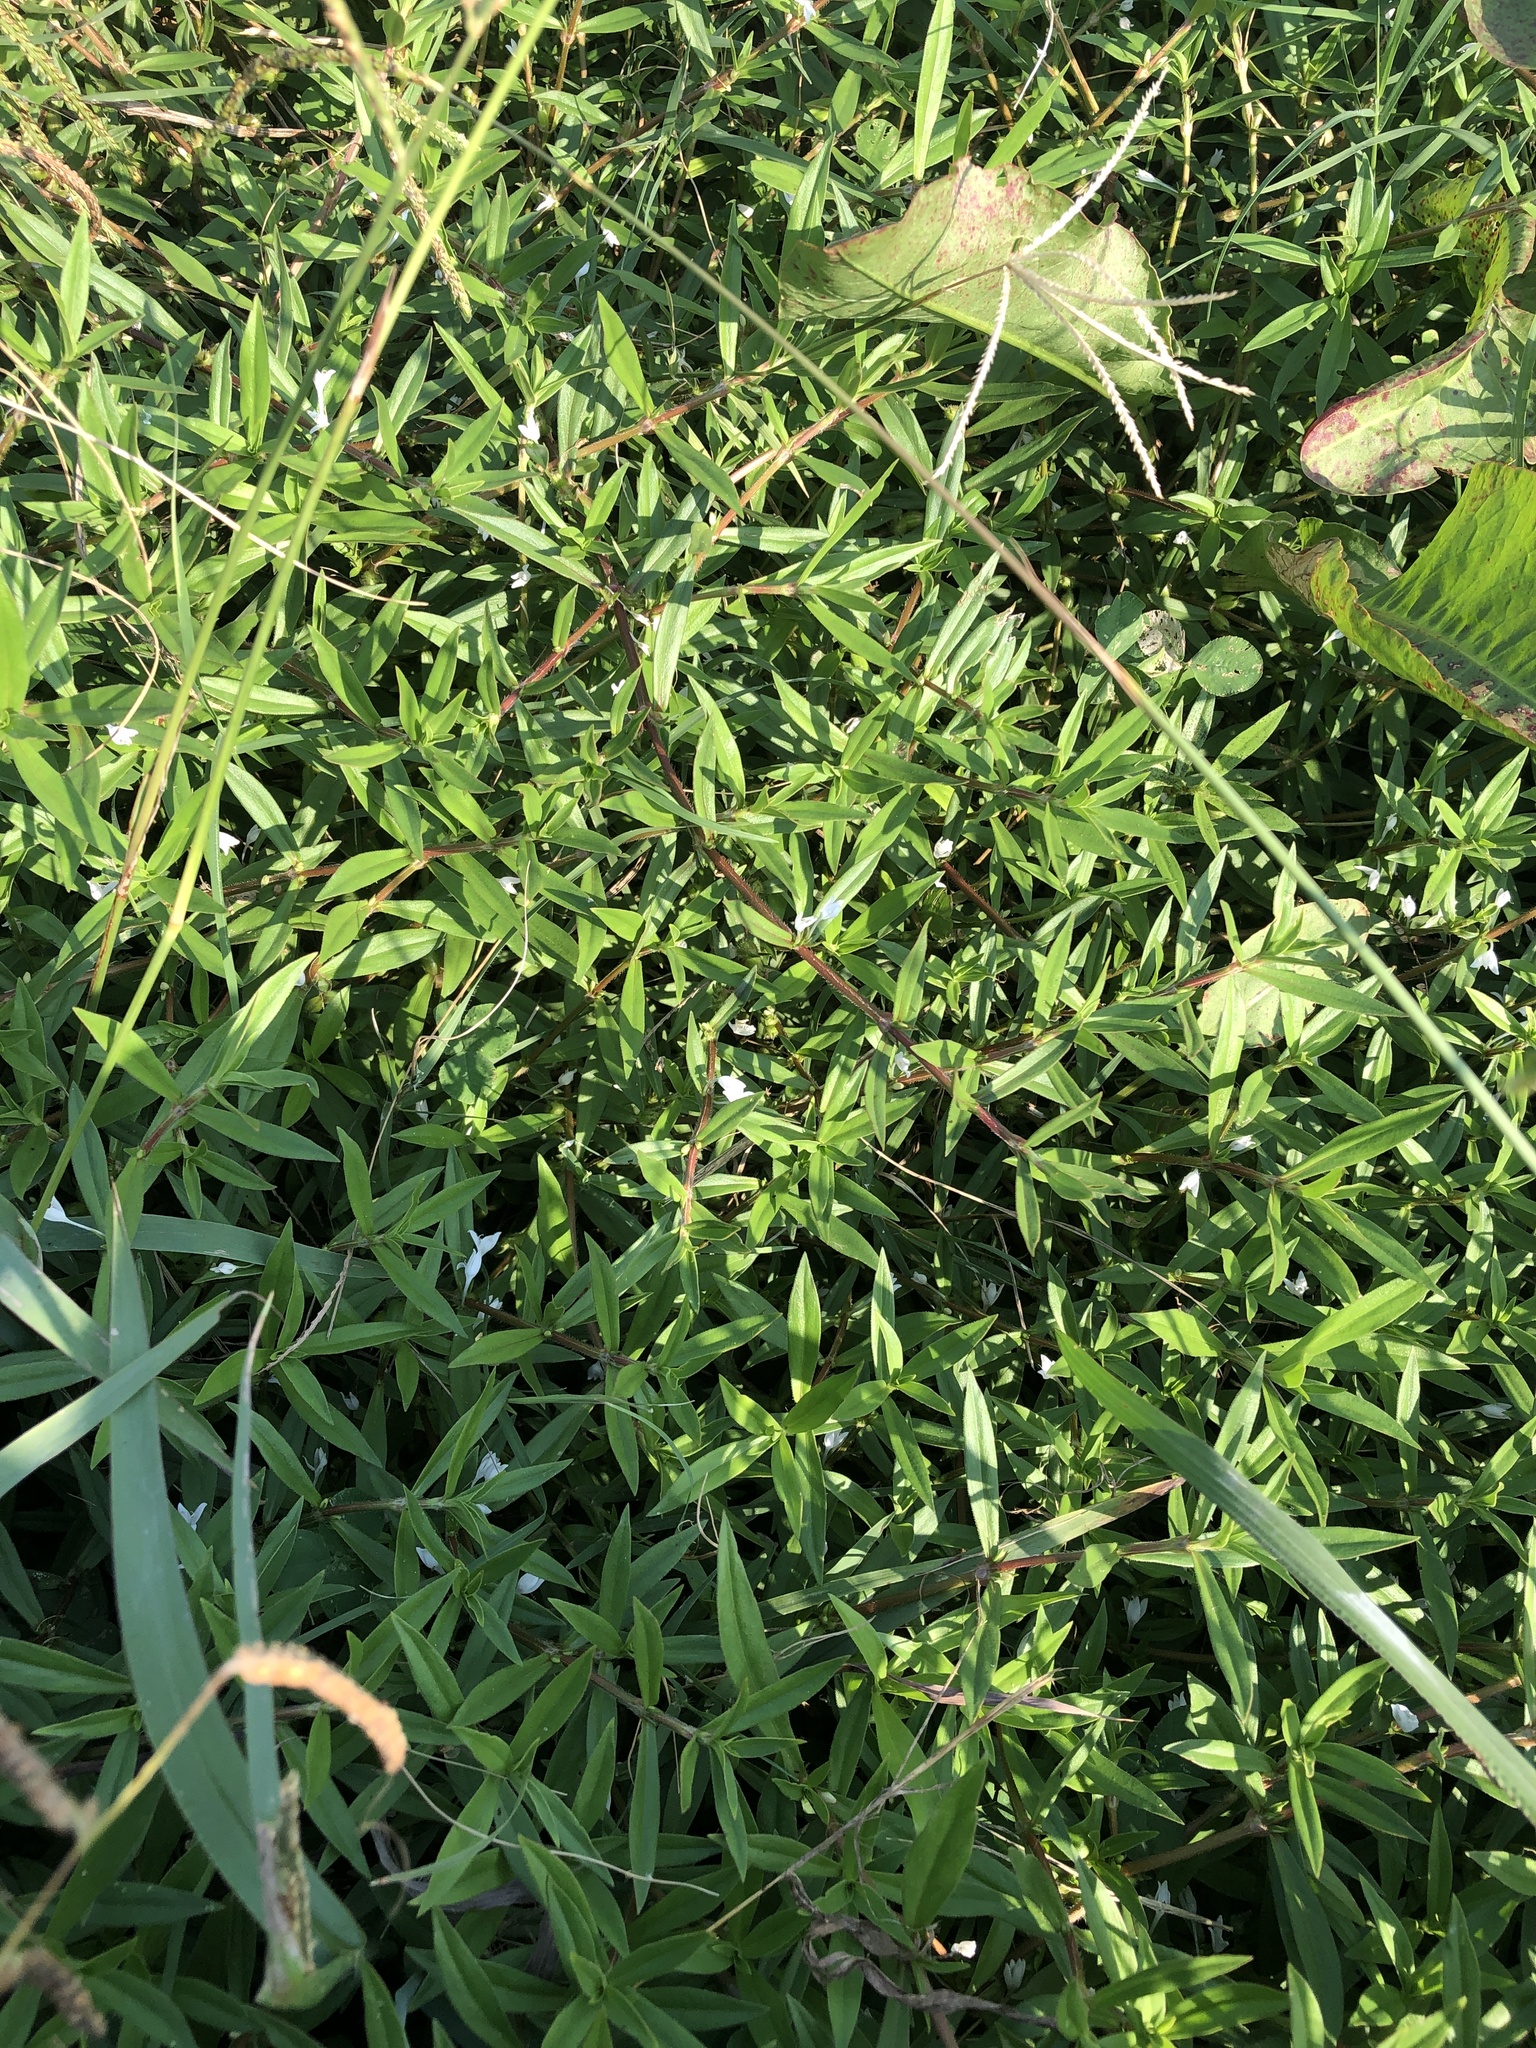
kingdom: Plantae
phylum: Tracheophyta
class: Magnoliopsida
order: Gentianales
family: Rubiaceae
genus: Diodia
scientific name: Diodia virginiana
